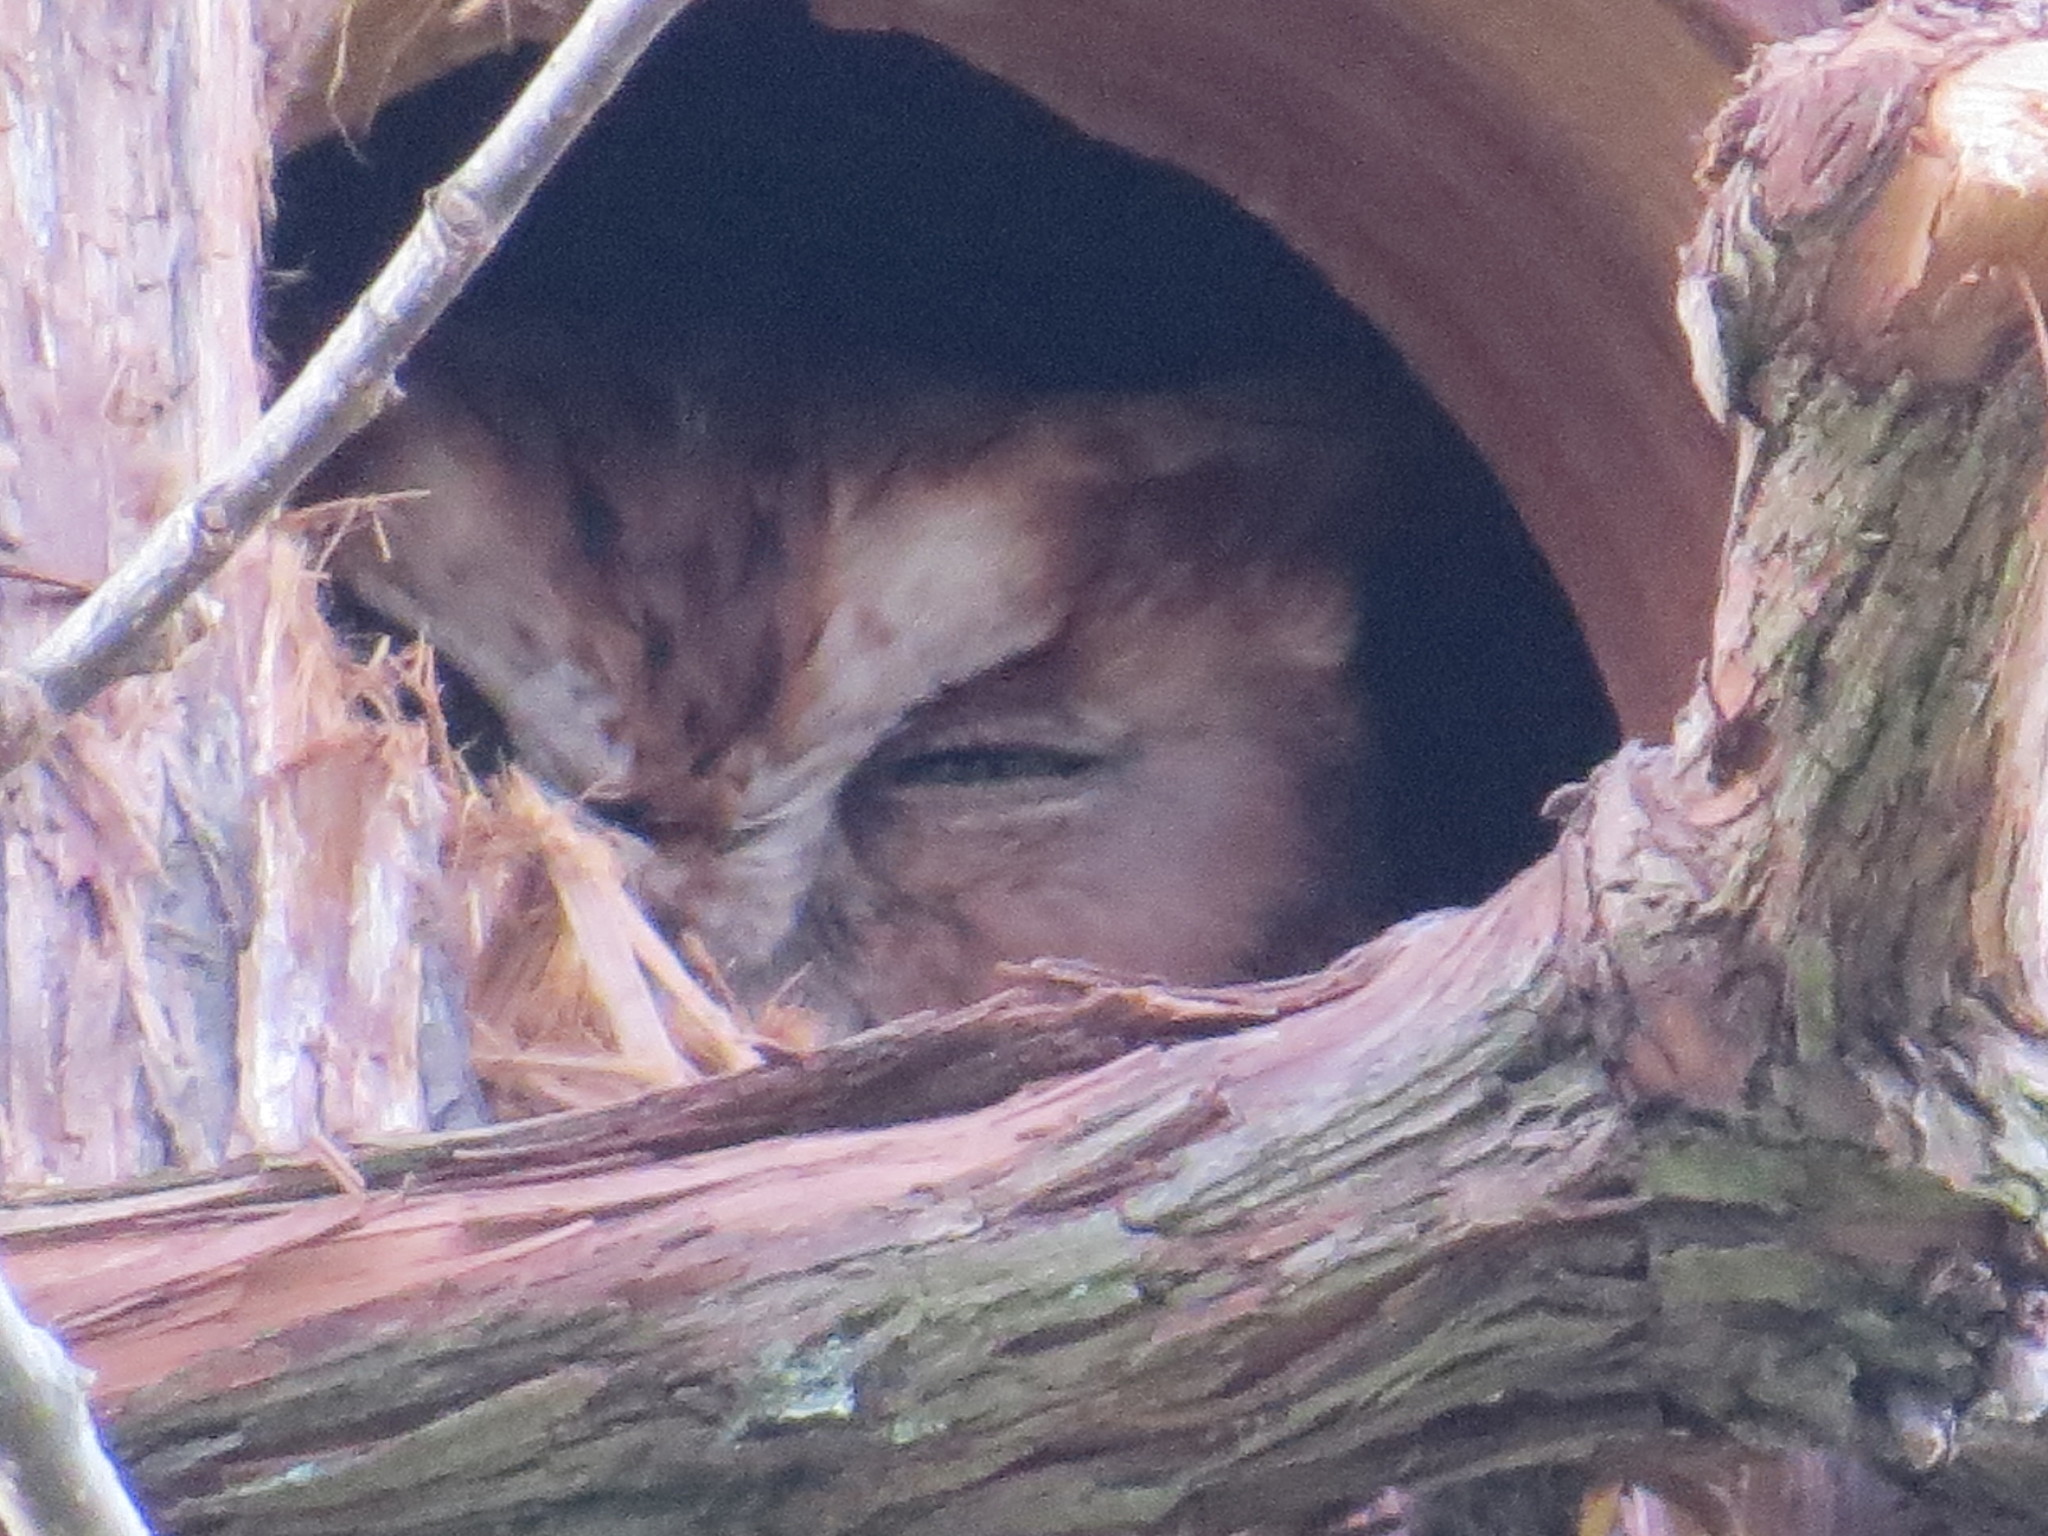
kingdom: Animalia
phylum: Chordata
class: Aves
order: Strigiformes
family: Strigidae
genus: Megascops
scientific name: Megascops asio
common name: Eastern screech-owl
